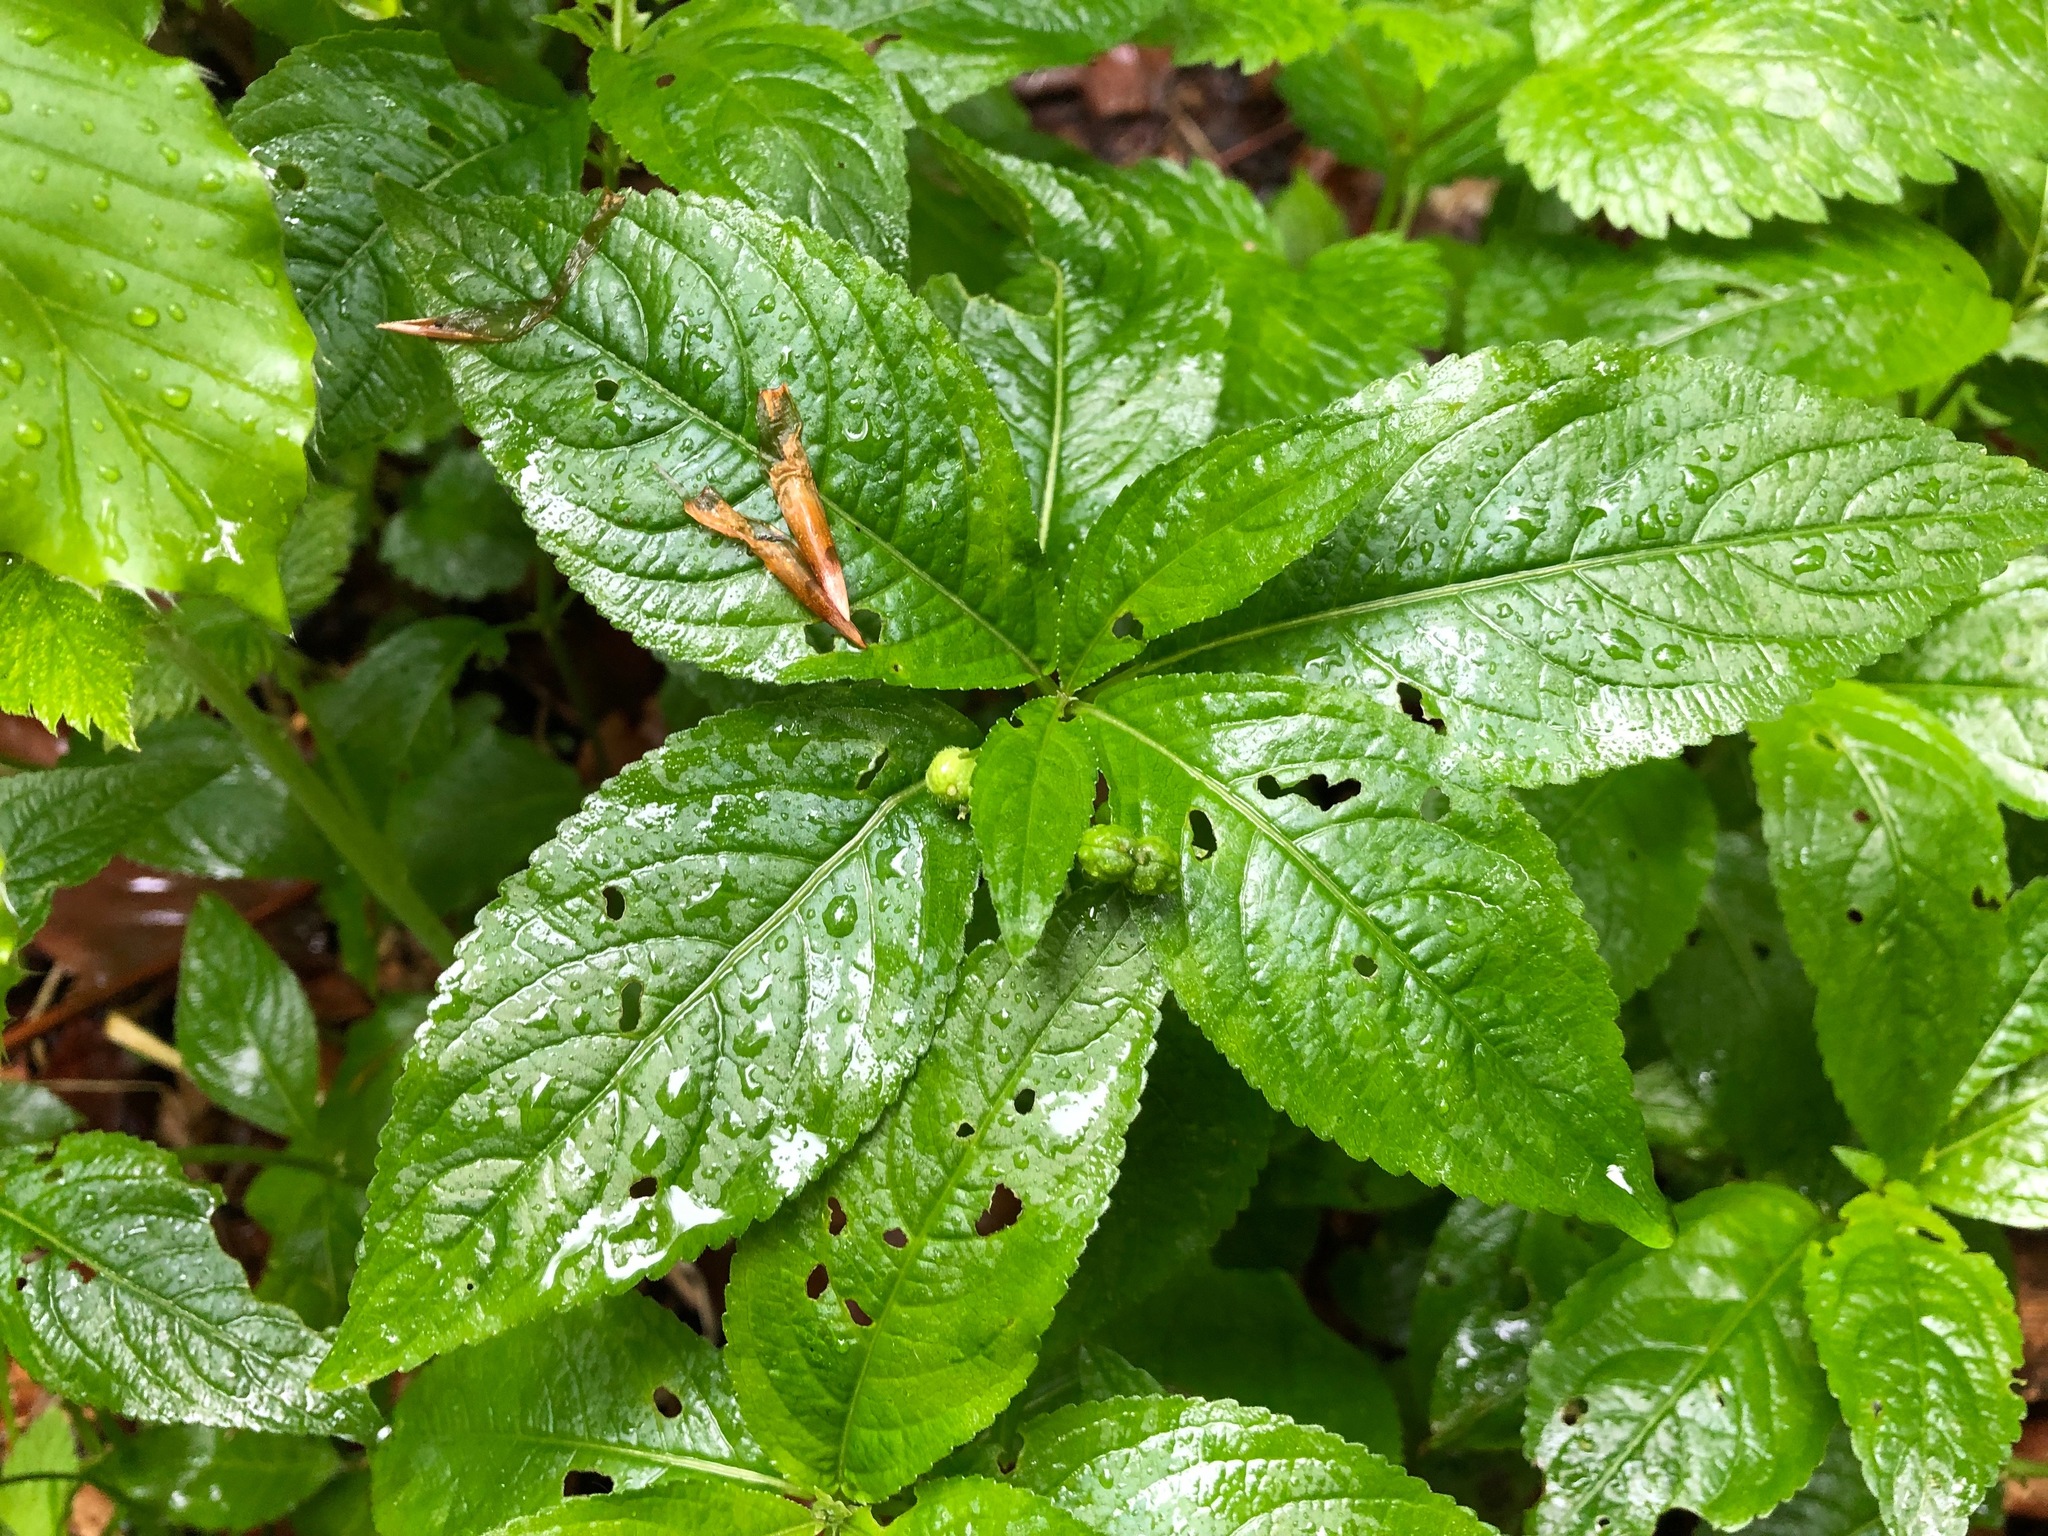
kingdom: Plantae
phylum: Tracheophyta
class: Magnoliopsida
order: Malpighiales
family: Euphorbiaceae
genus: Mercurialis
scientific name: Mercurialis perennis
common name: Dog mercury
